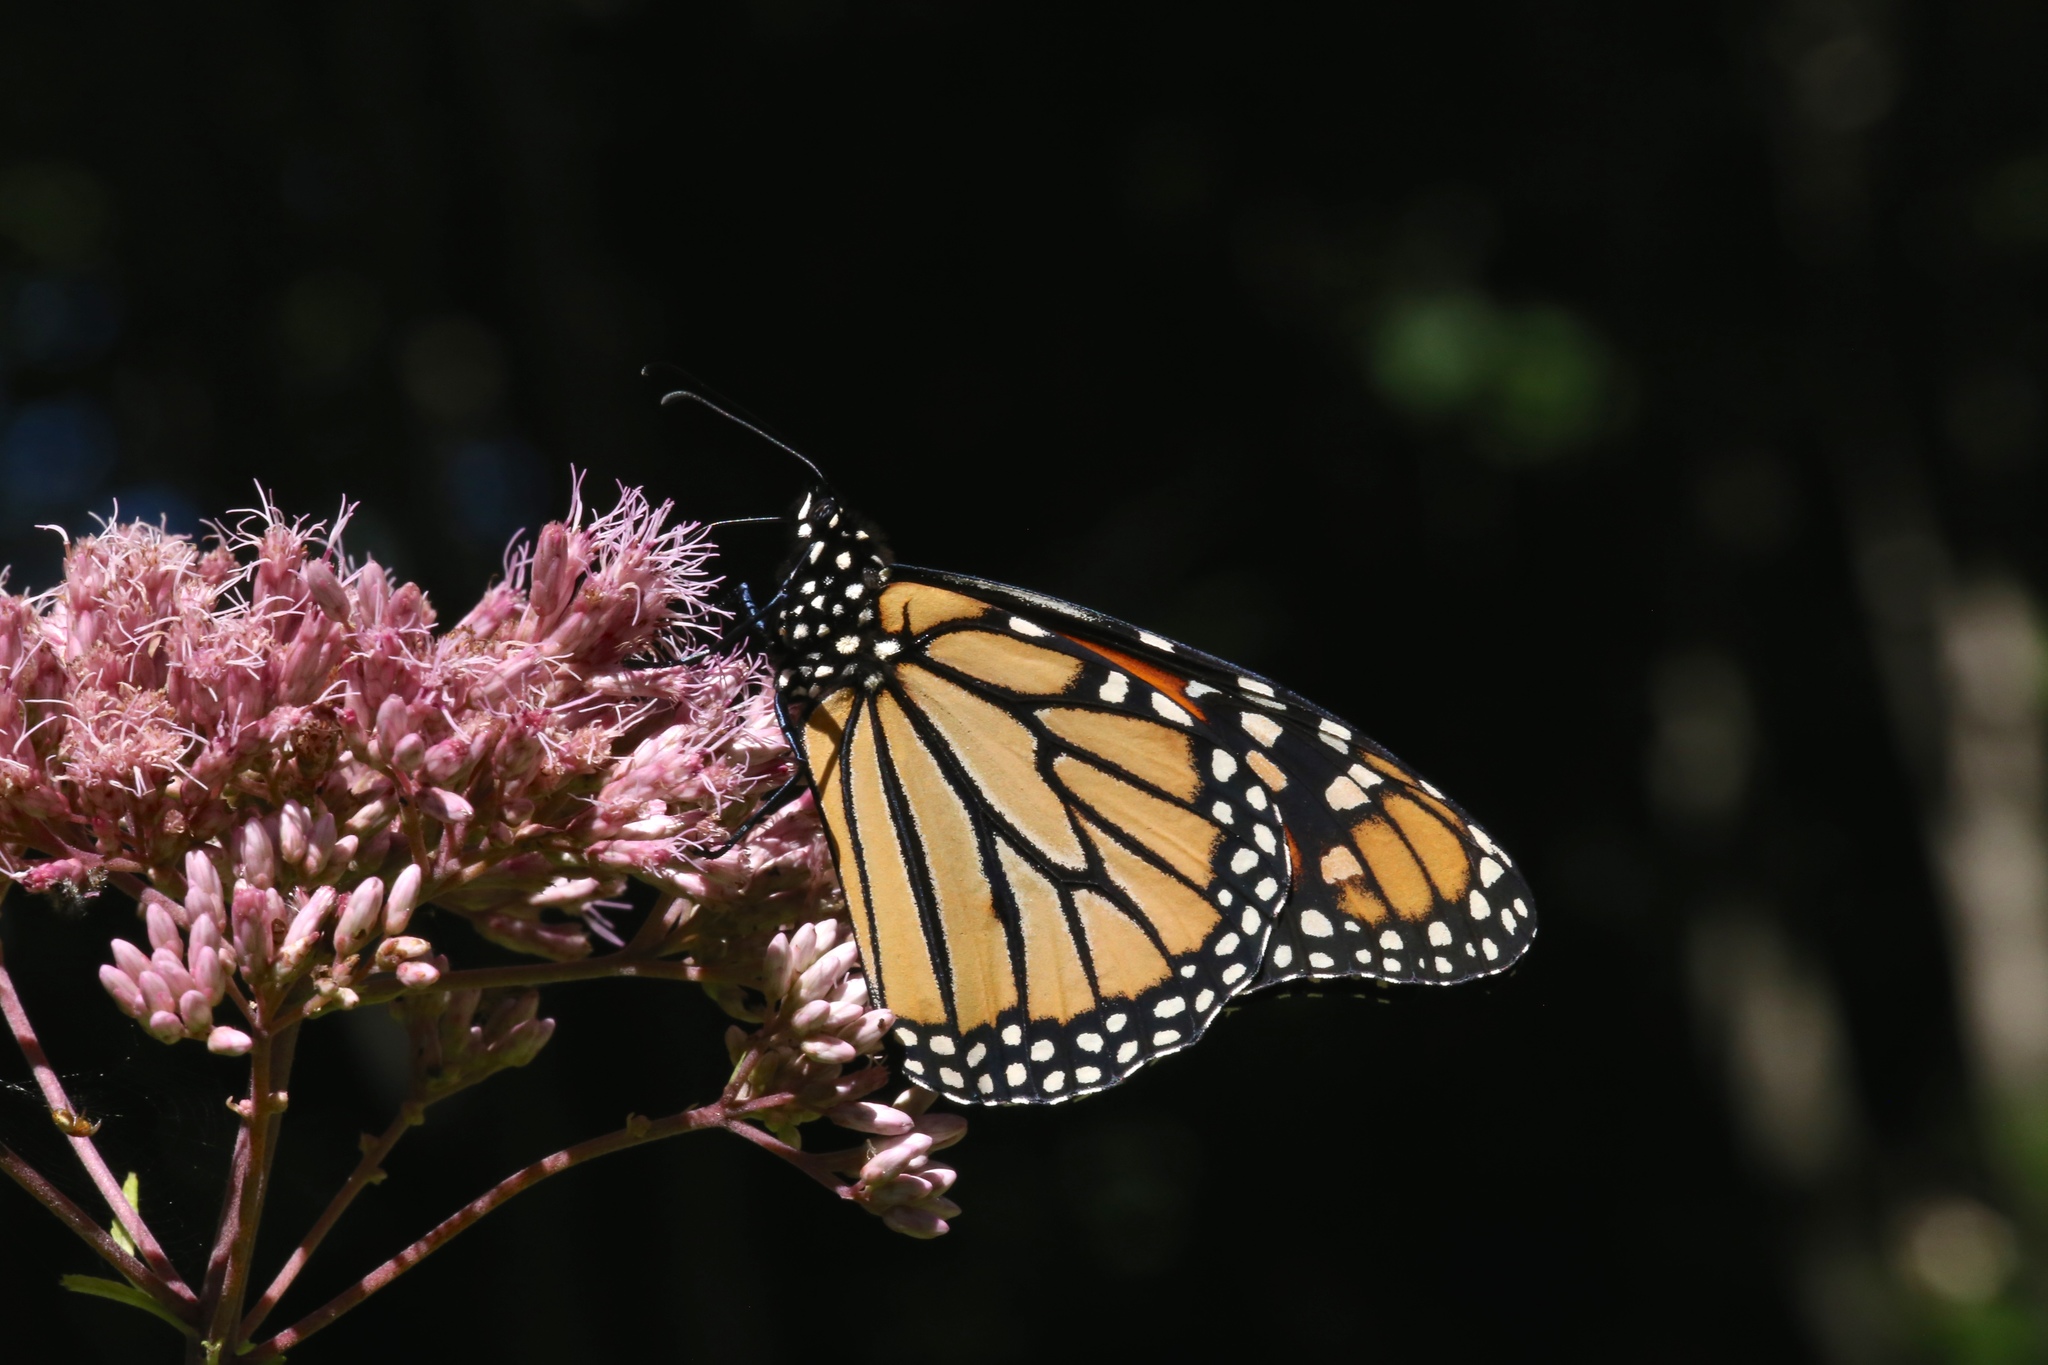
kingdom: Animalia
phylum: Arthropoda
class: Insecta
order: Lepidoptera
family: Nymphalidae
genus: Danaus
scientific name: Danaus plexippus
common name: Monarch
